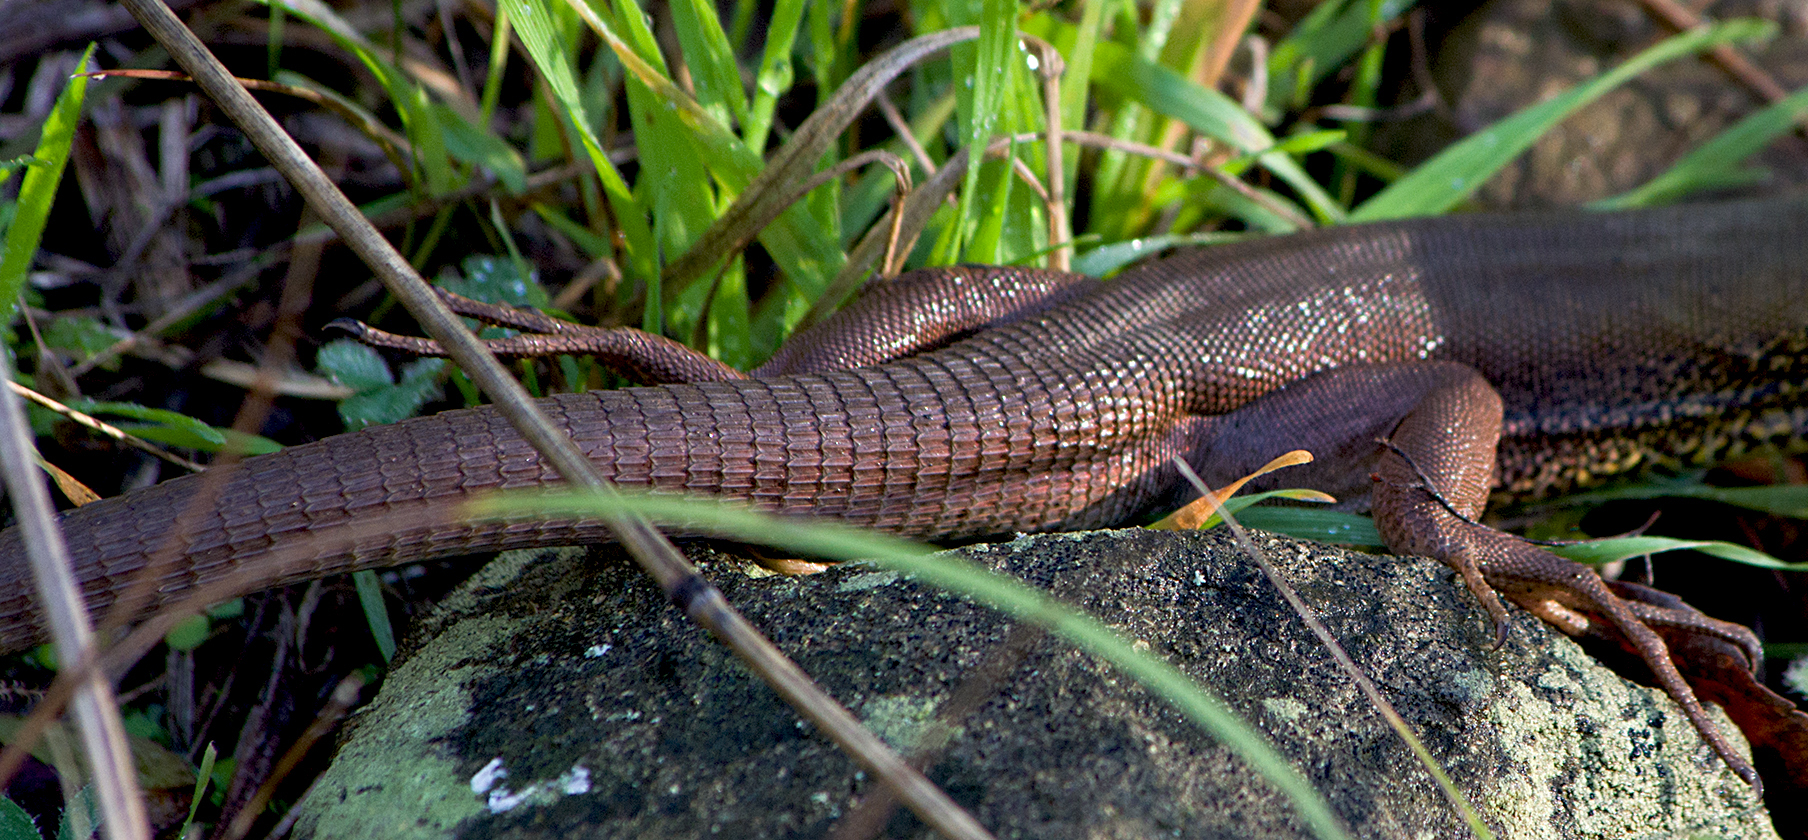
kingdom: Animalia
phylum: Chordata
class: Squamata
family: Lacertidae
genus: Lacerta
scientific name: Lacerta viridis
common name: European green lizard
